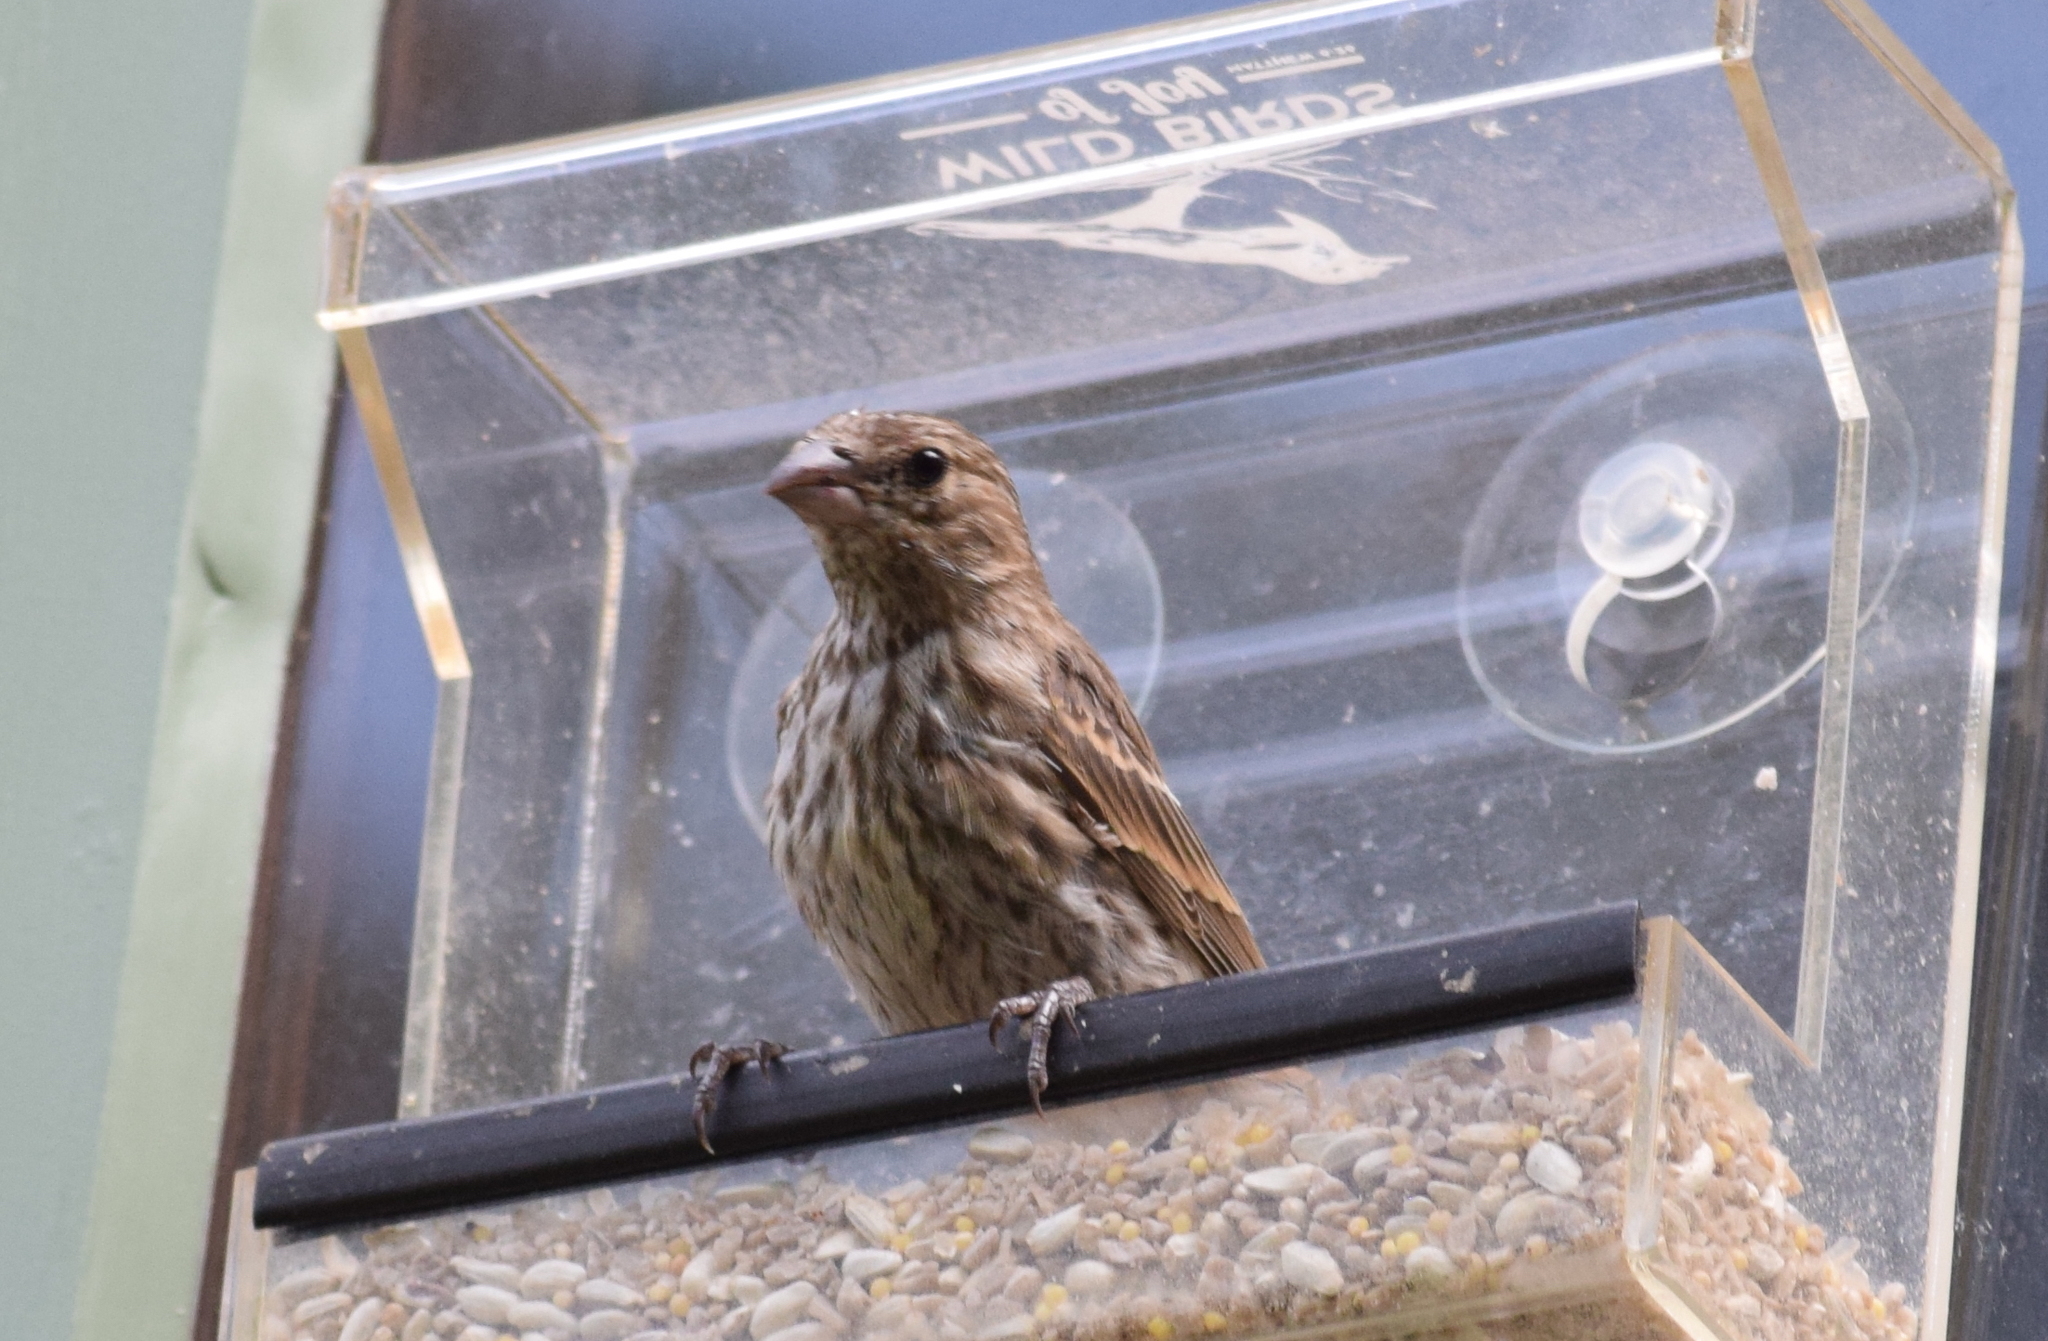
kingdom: Animalia
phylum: Chordata
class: Aves
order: Passeriformes
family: Fringillidae
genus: Haemorhous
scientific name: Haemorhous mexicanus
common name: House finch
